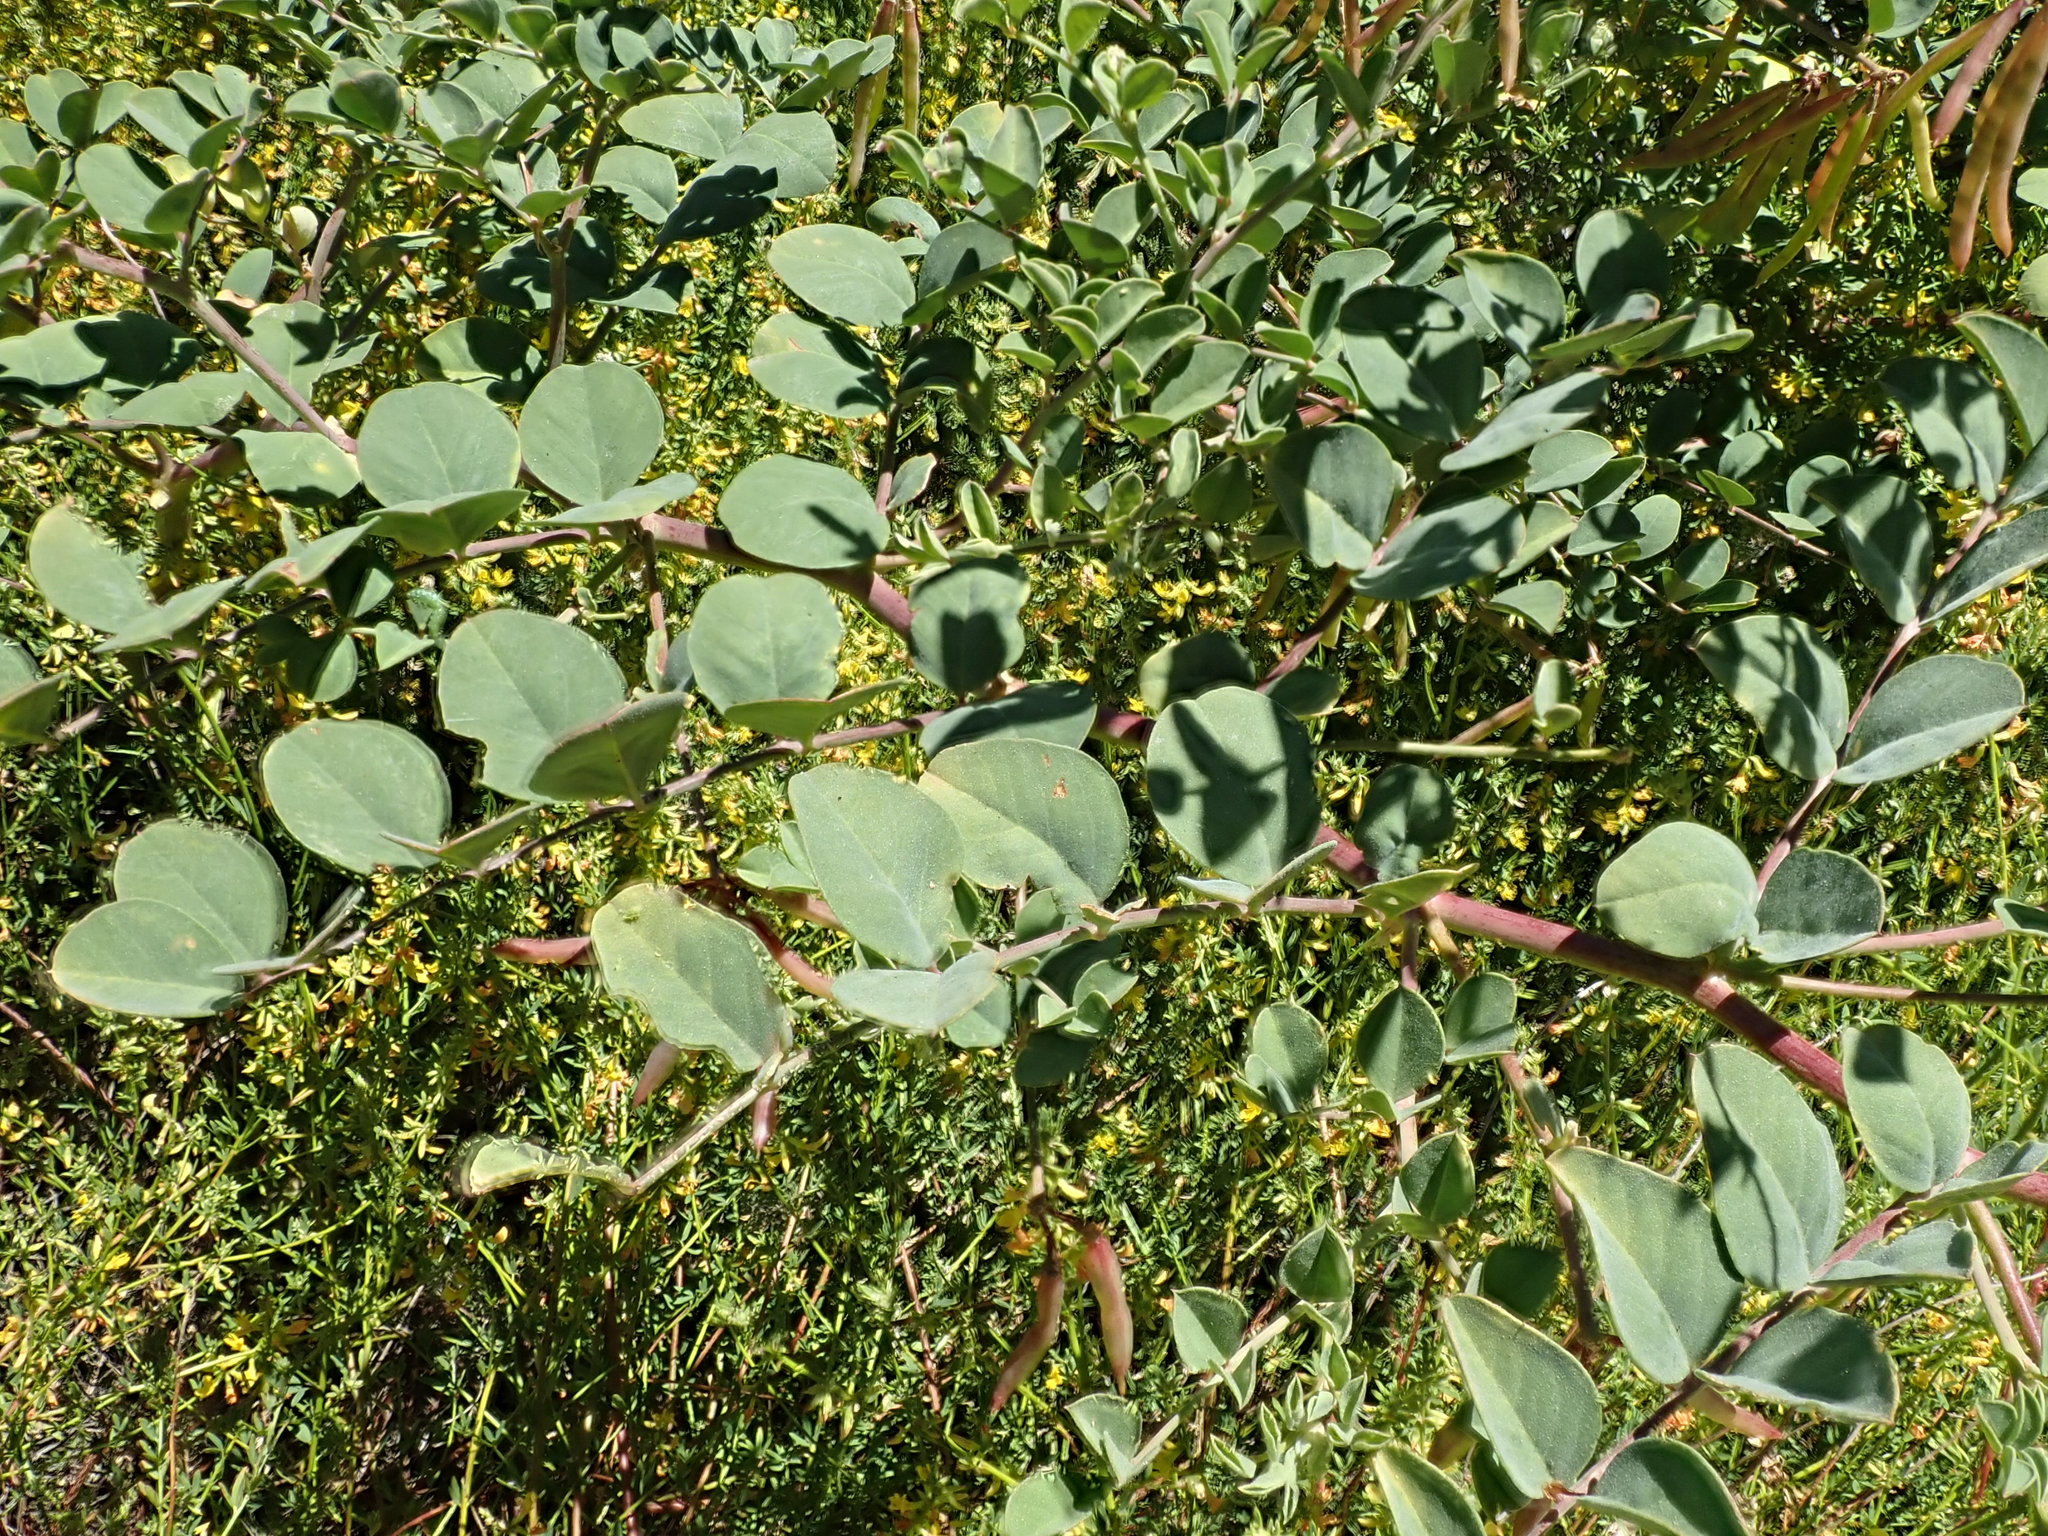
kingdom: Plantae
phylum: Tracheophyta
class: Magnoliopsida
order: Fabales
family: Fabaceae
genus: Hosackia
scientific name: Hosackia crassifolia
